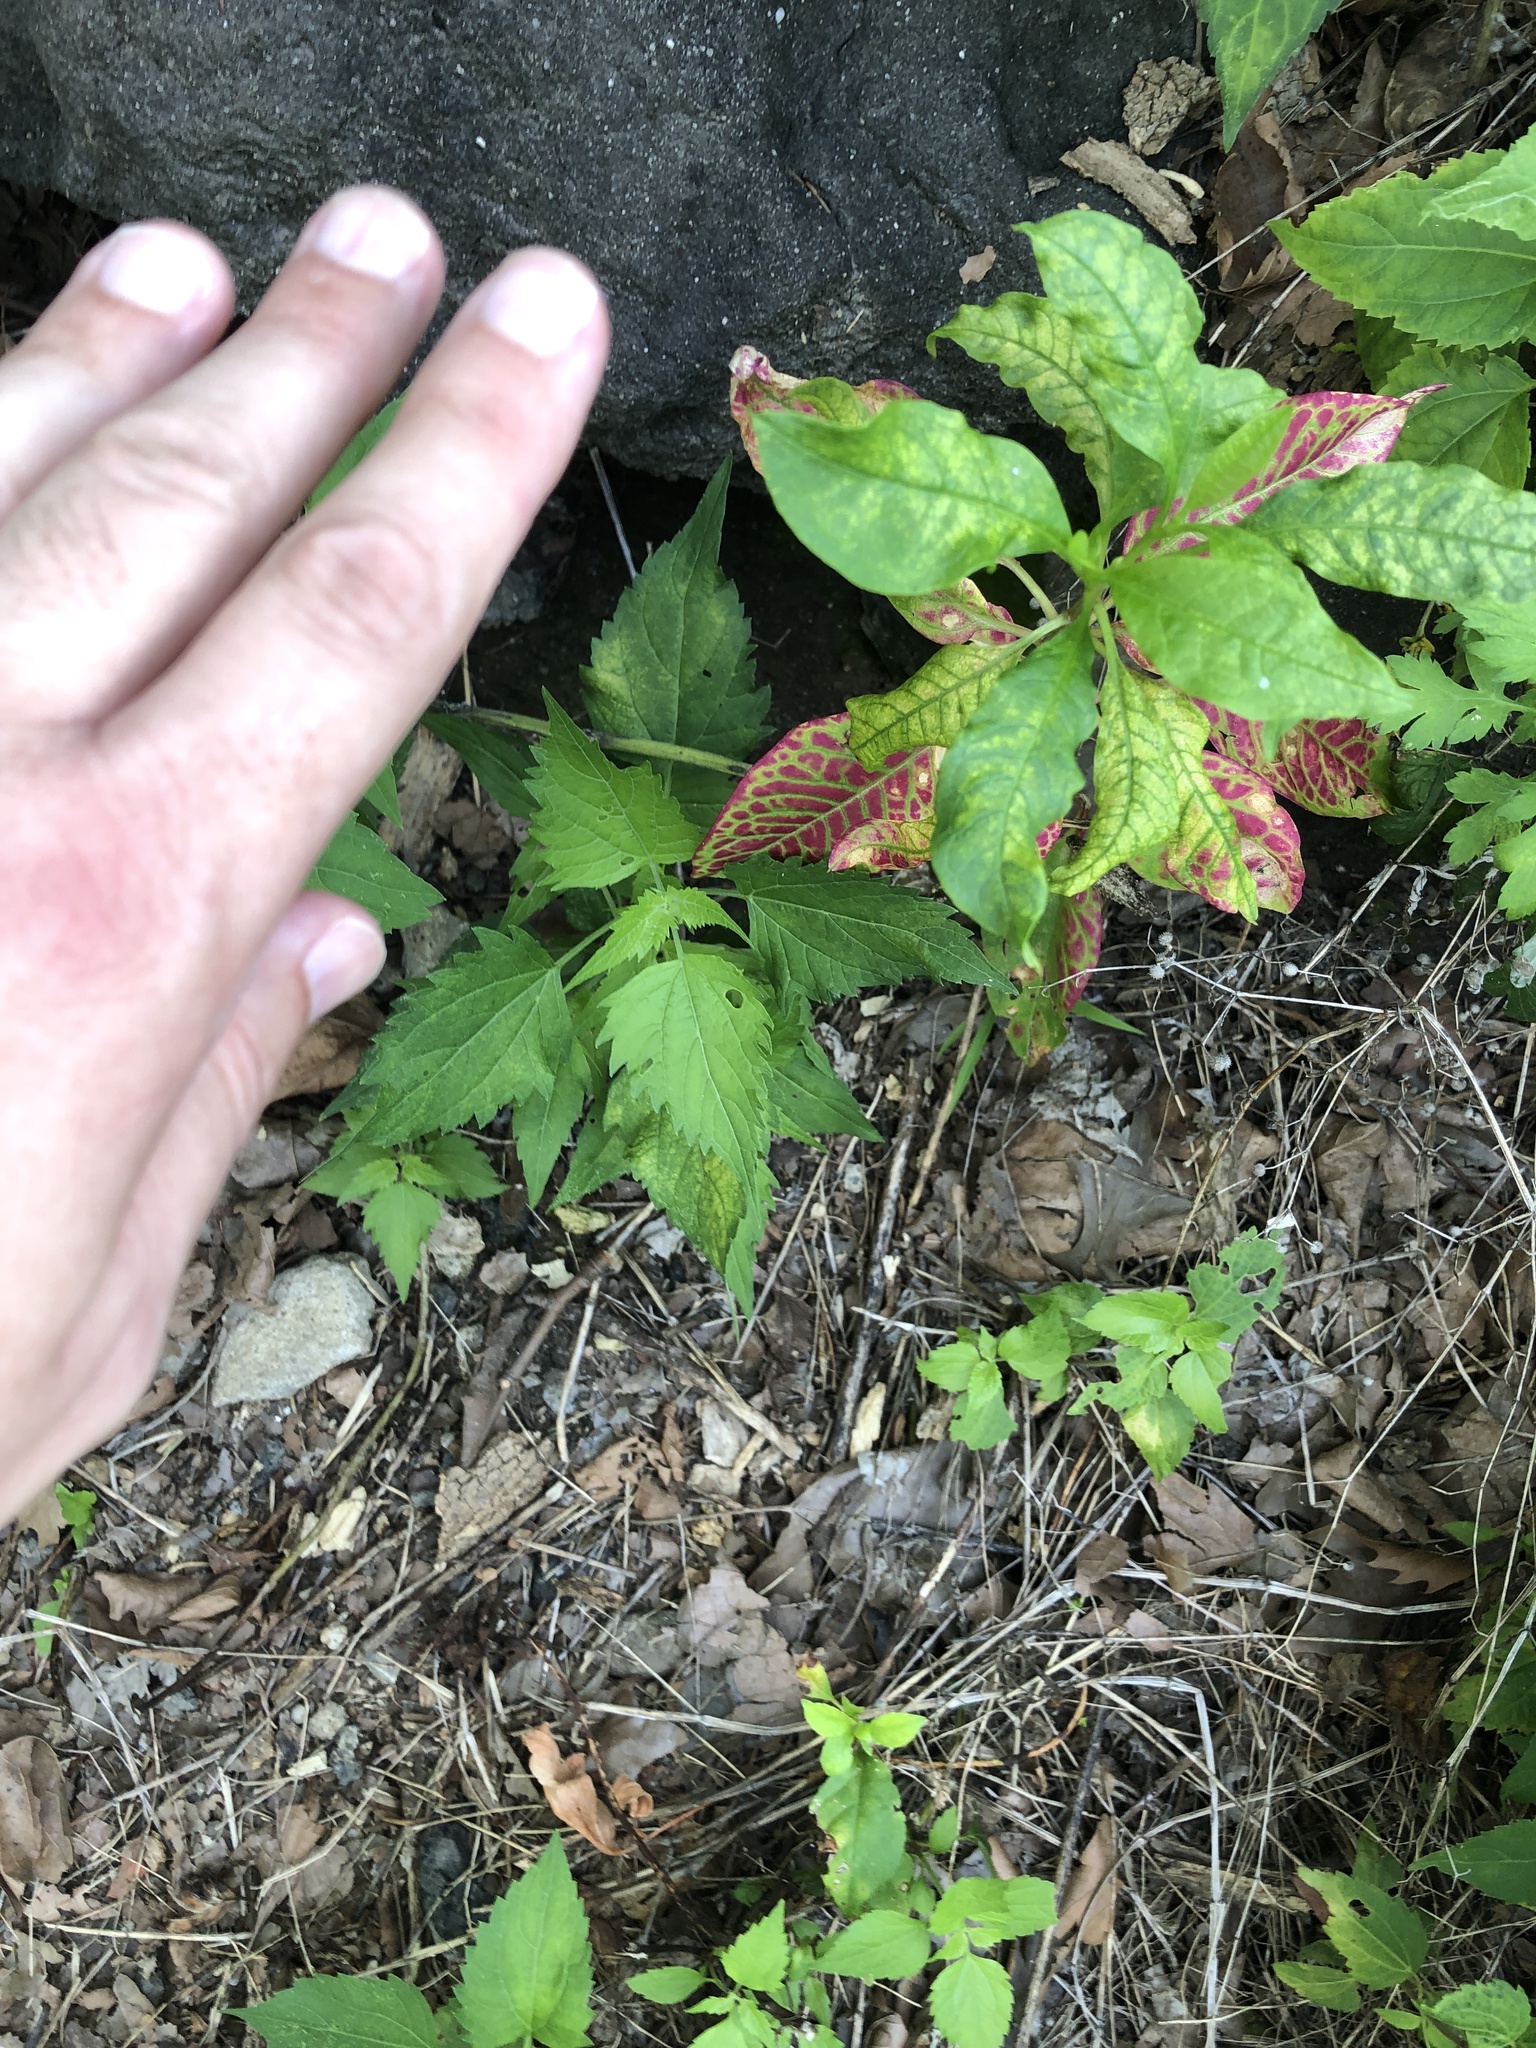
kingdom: Plantae
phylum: Tracheophyta
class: Magnoliopsida
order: Caryophyllales
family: Phytolaccaceae
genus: Phytolacca
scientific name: Phytolacca americana
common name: American pokeweed
